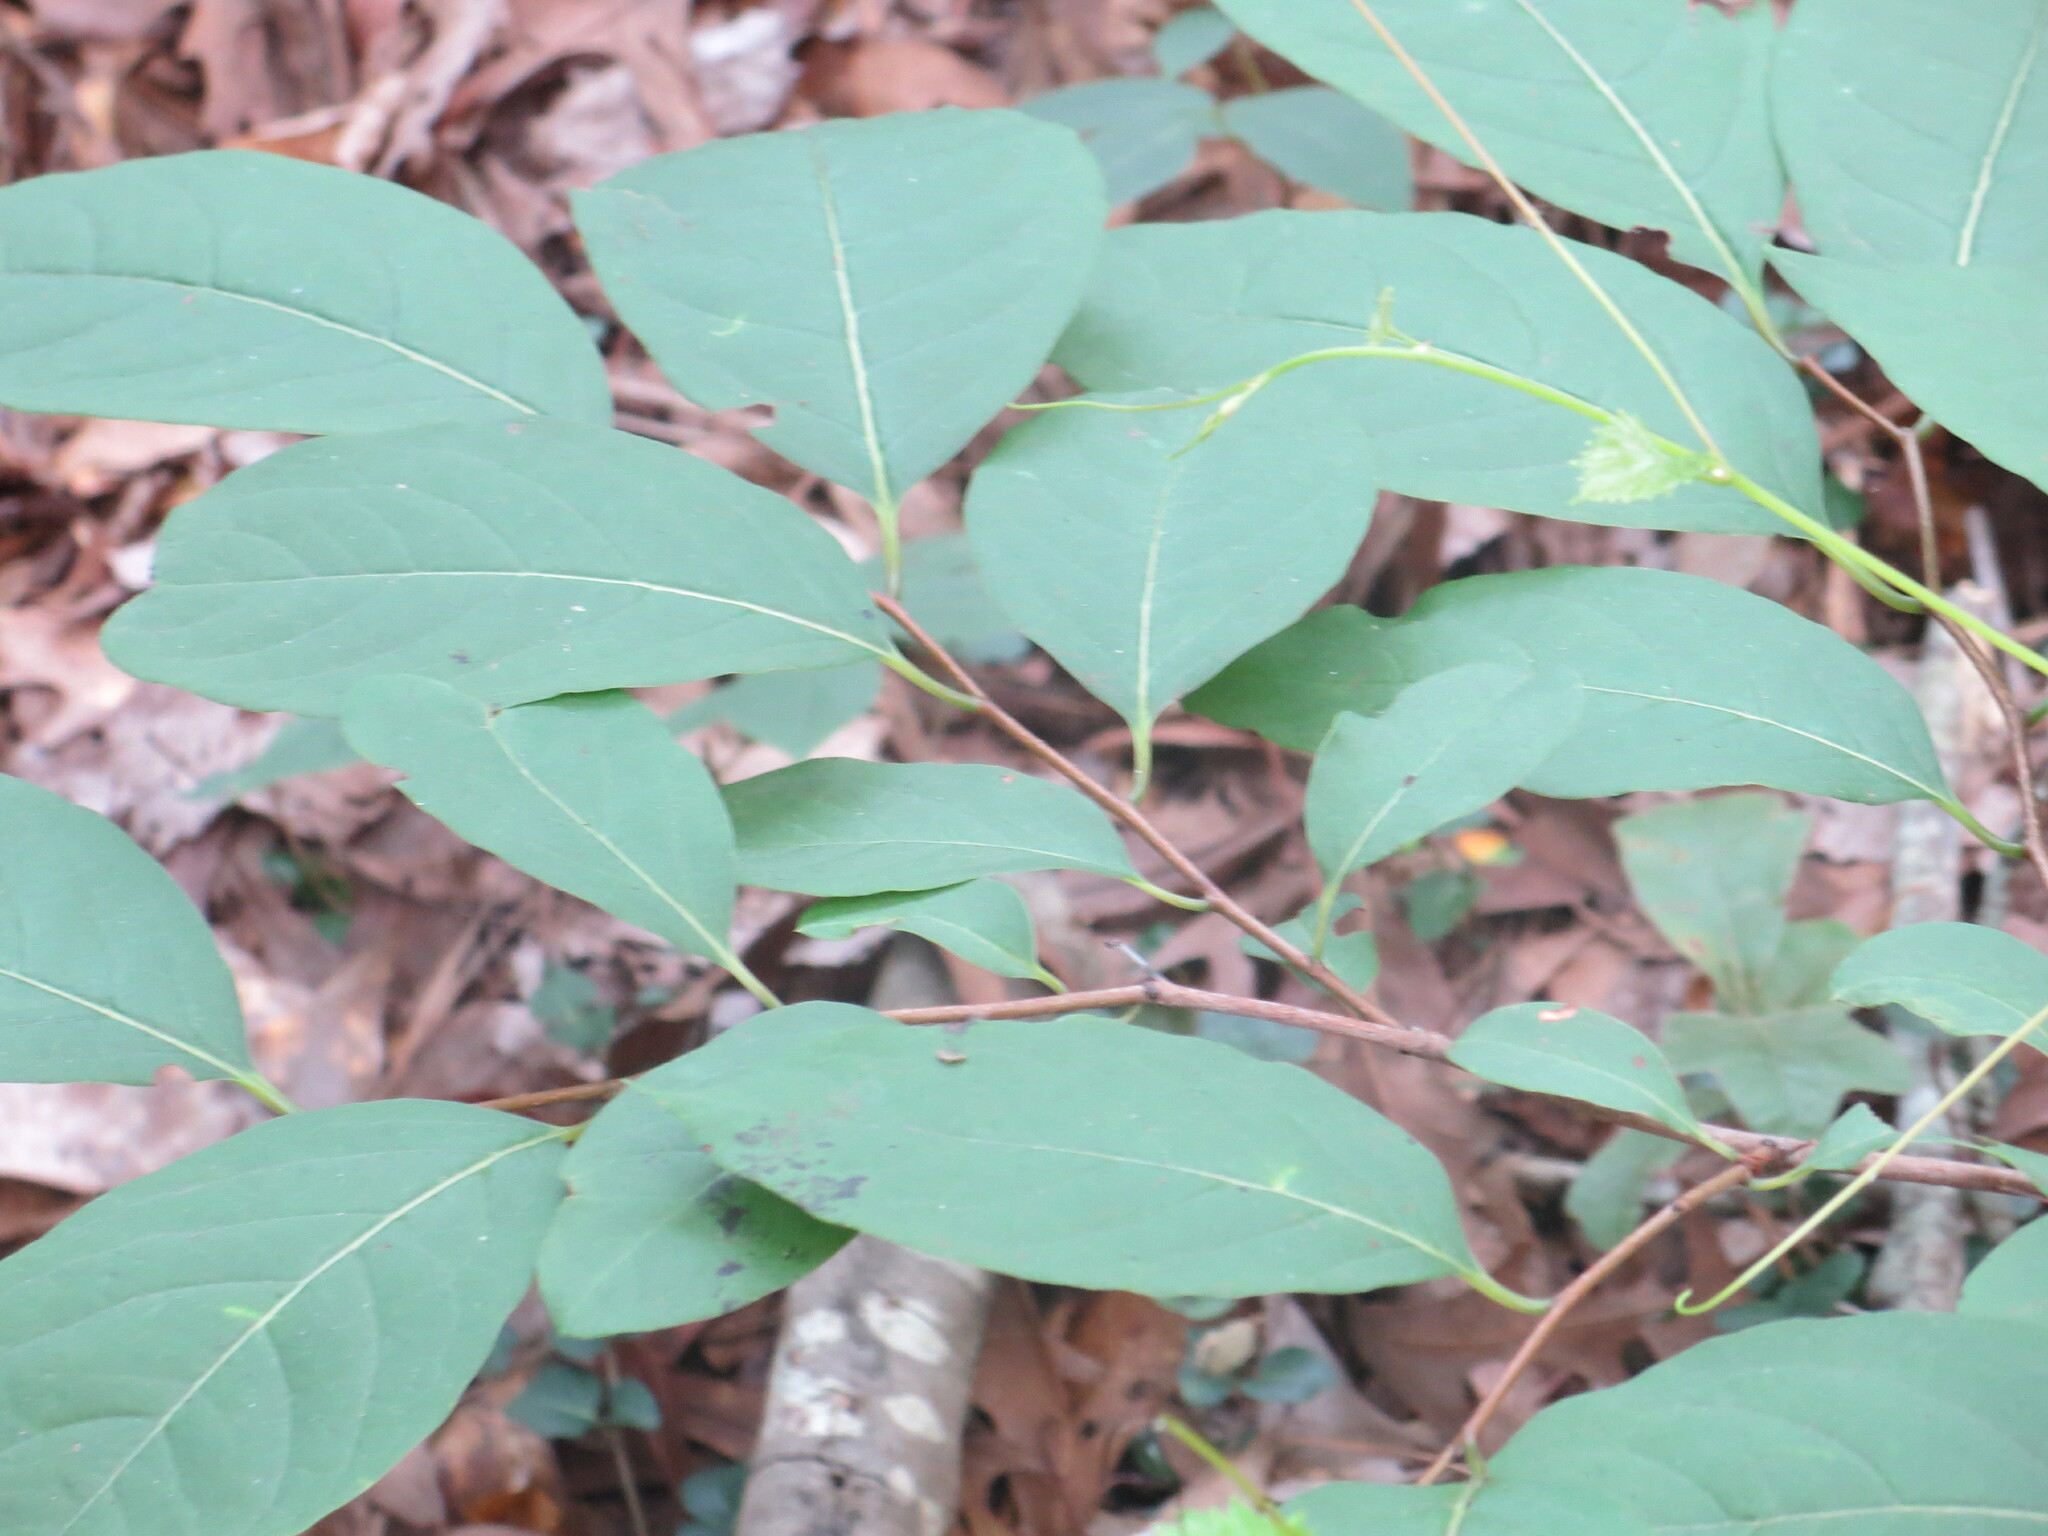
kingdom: Plantae
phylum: Tracheophyta
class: Magnoliopsida
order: Ericales
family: Ebenaceae
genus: Diospyros
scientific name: Diospyros virginiana
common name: Persimmon
